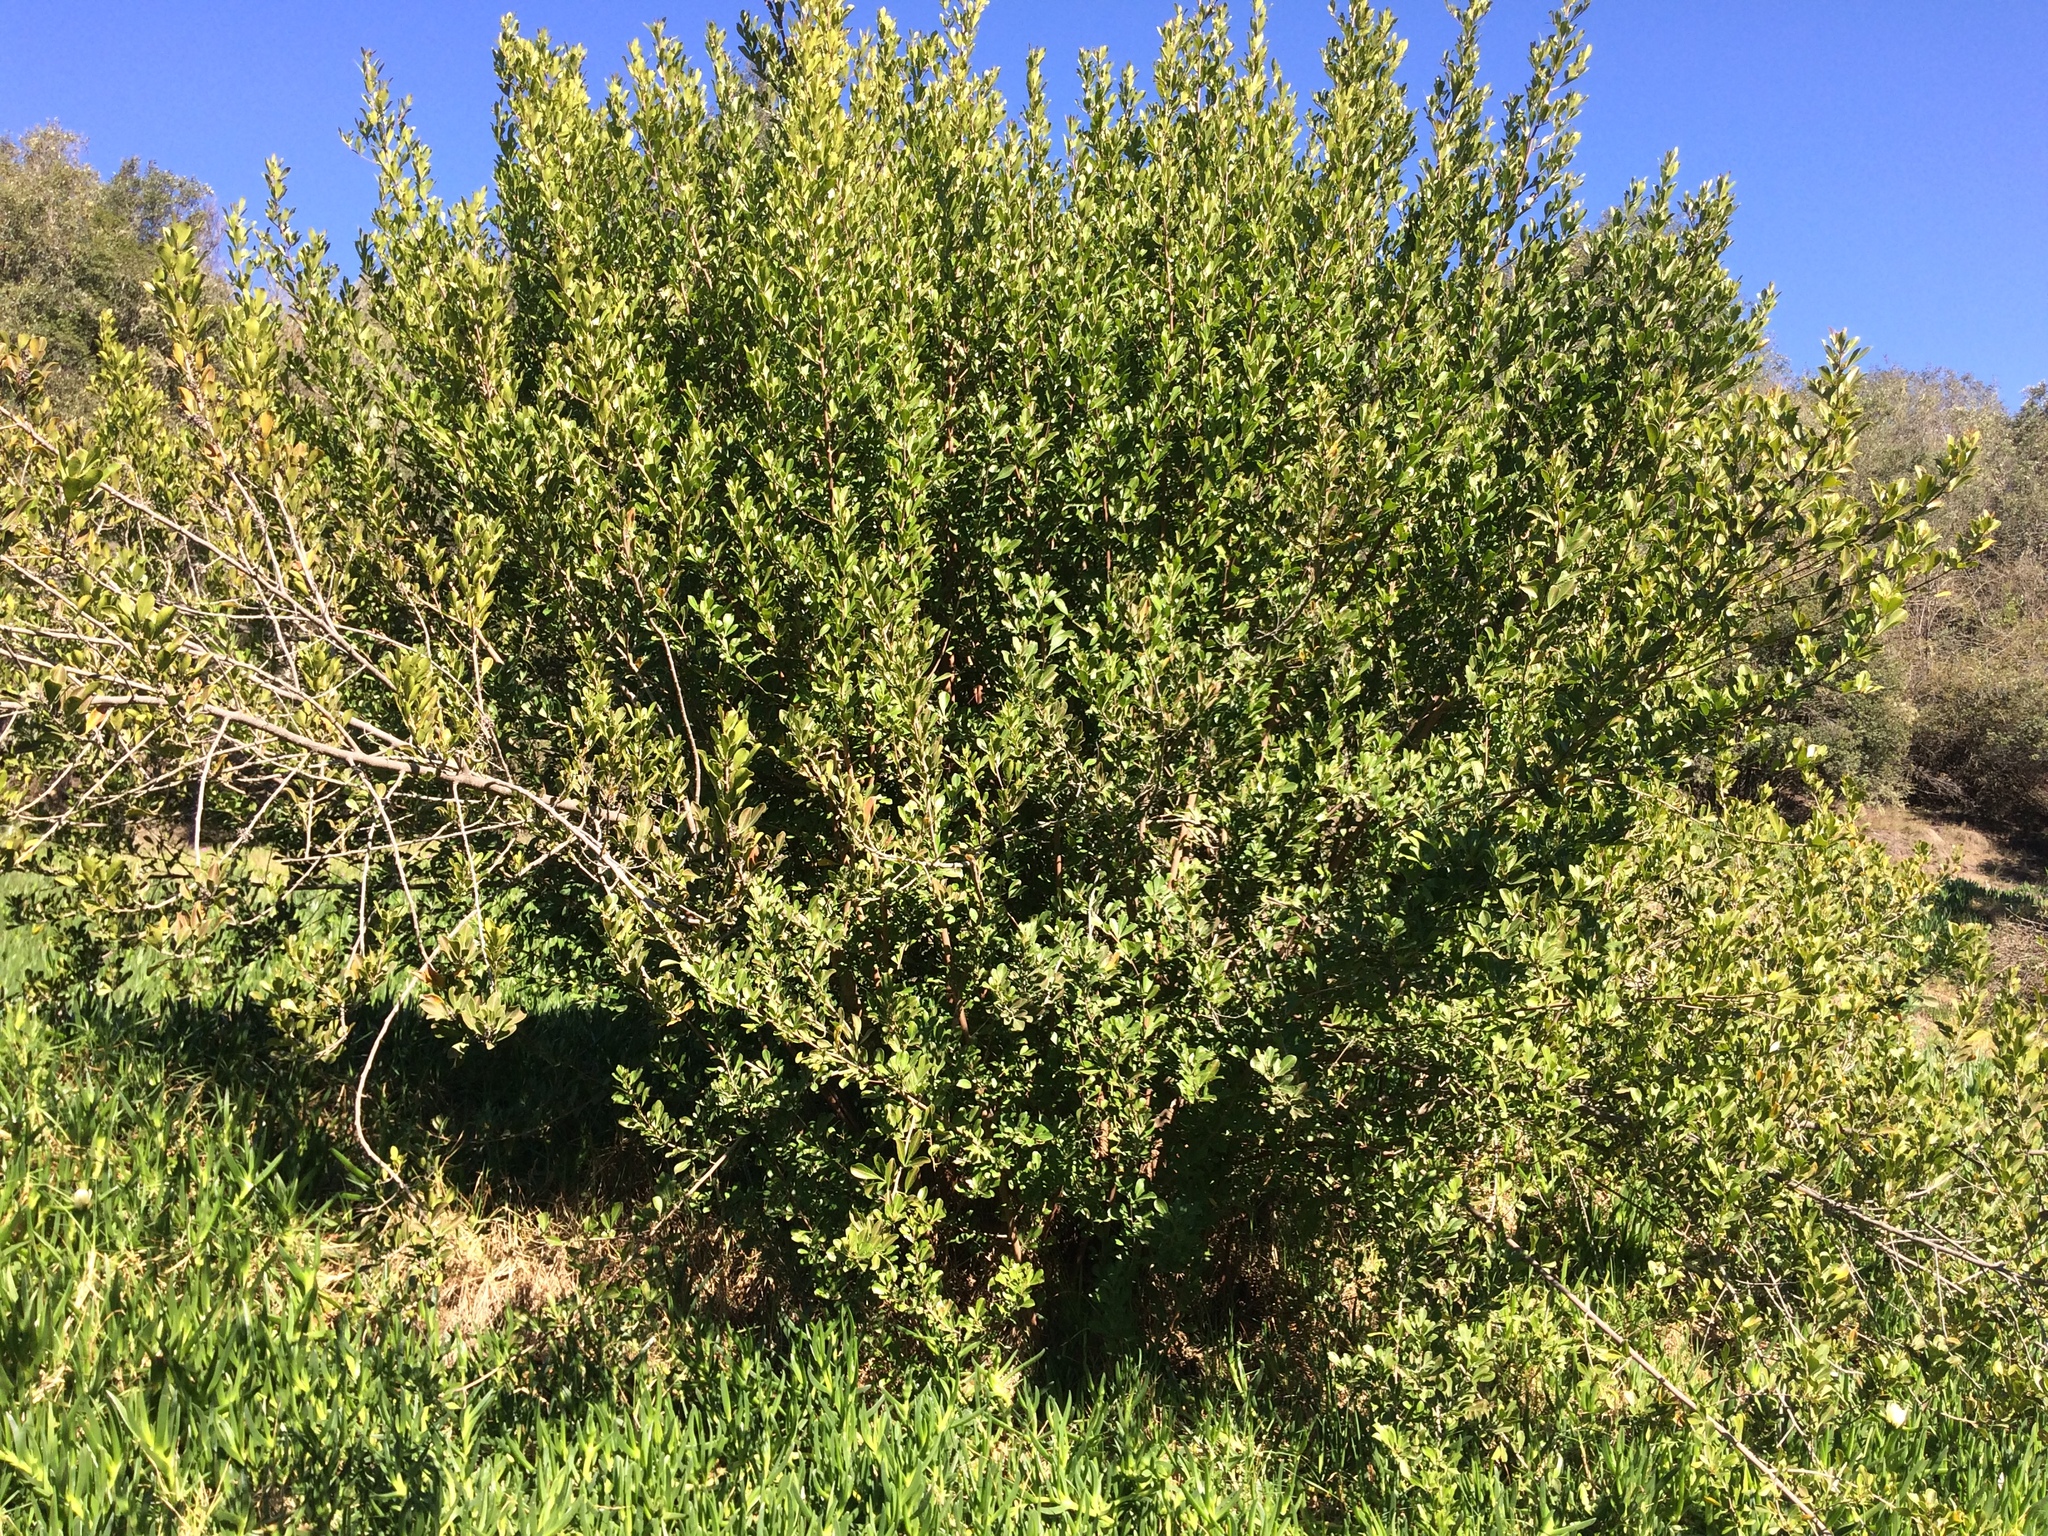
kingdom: Plantae
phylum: Tracheophyta
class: Magnoliopsida
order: Sapindales
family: Anacardiaceae
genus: Searsia
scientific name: Searsia lucida
